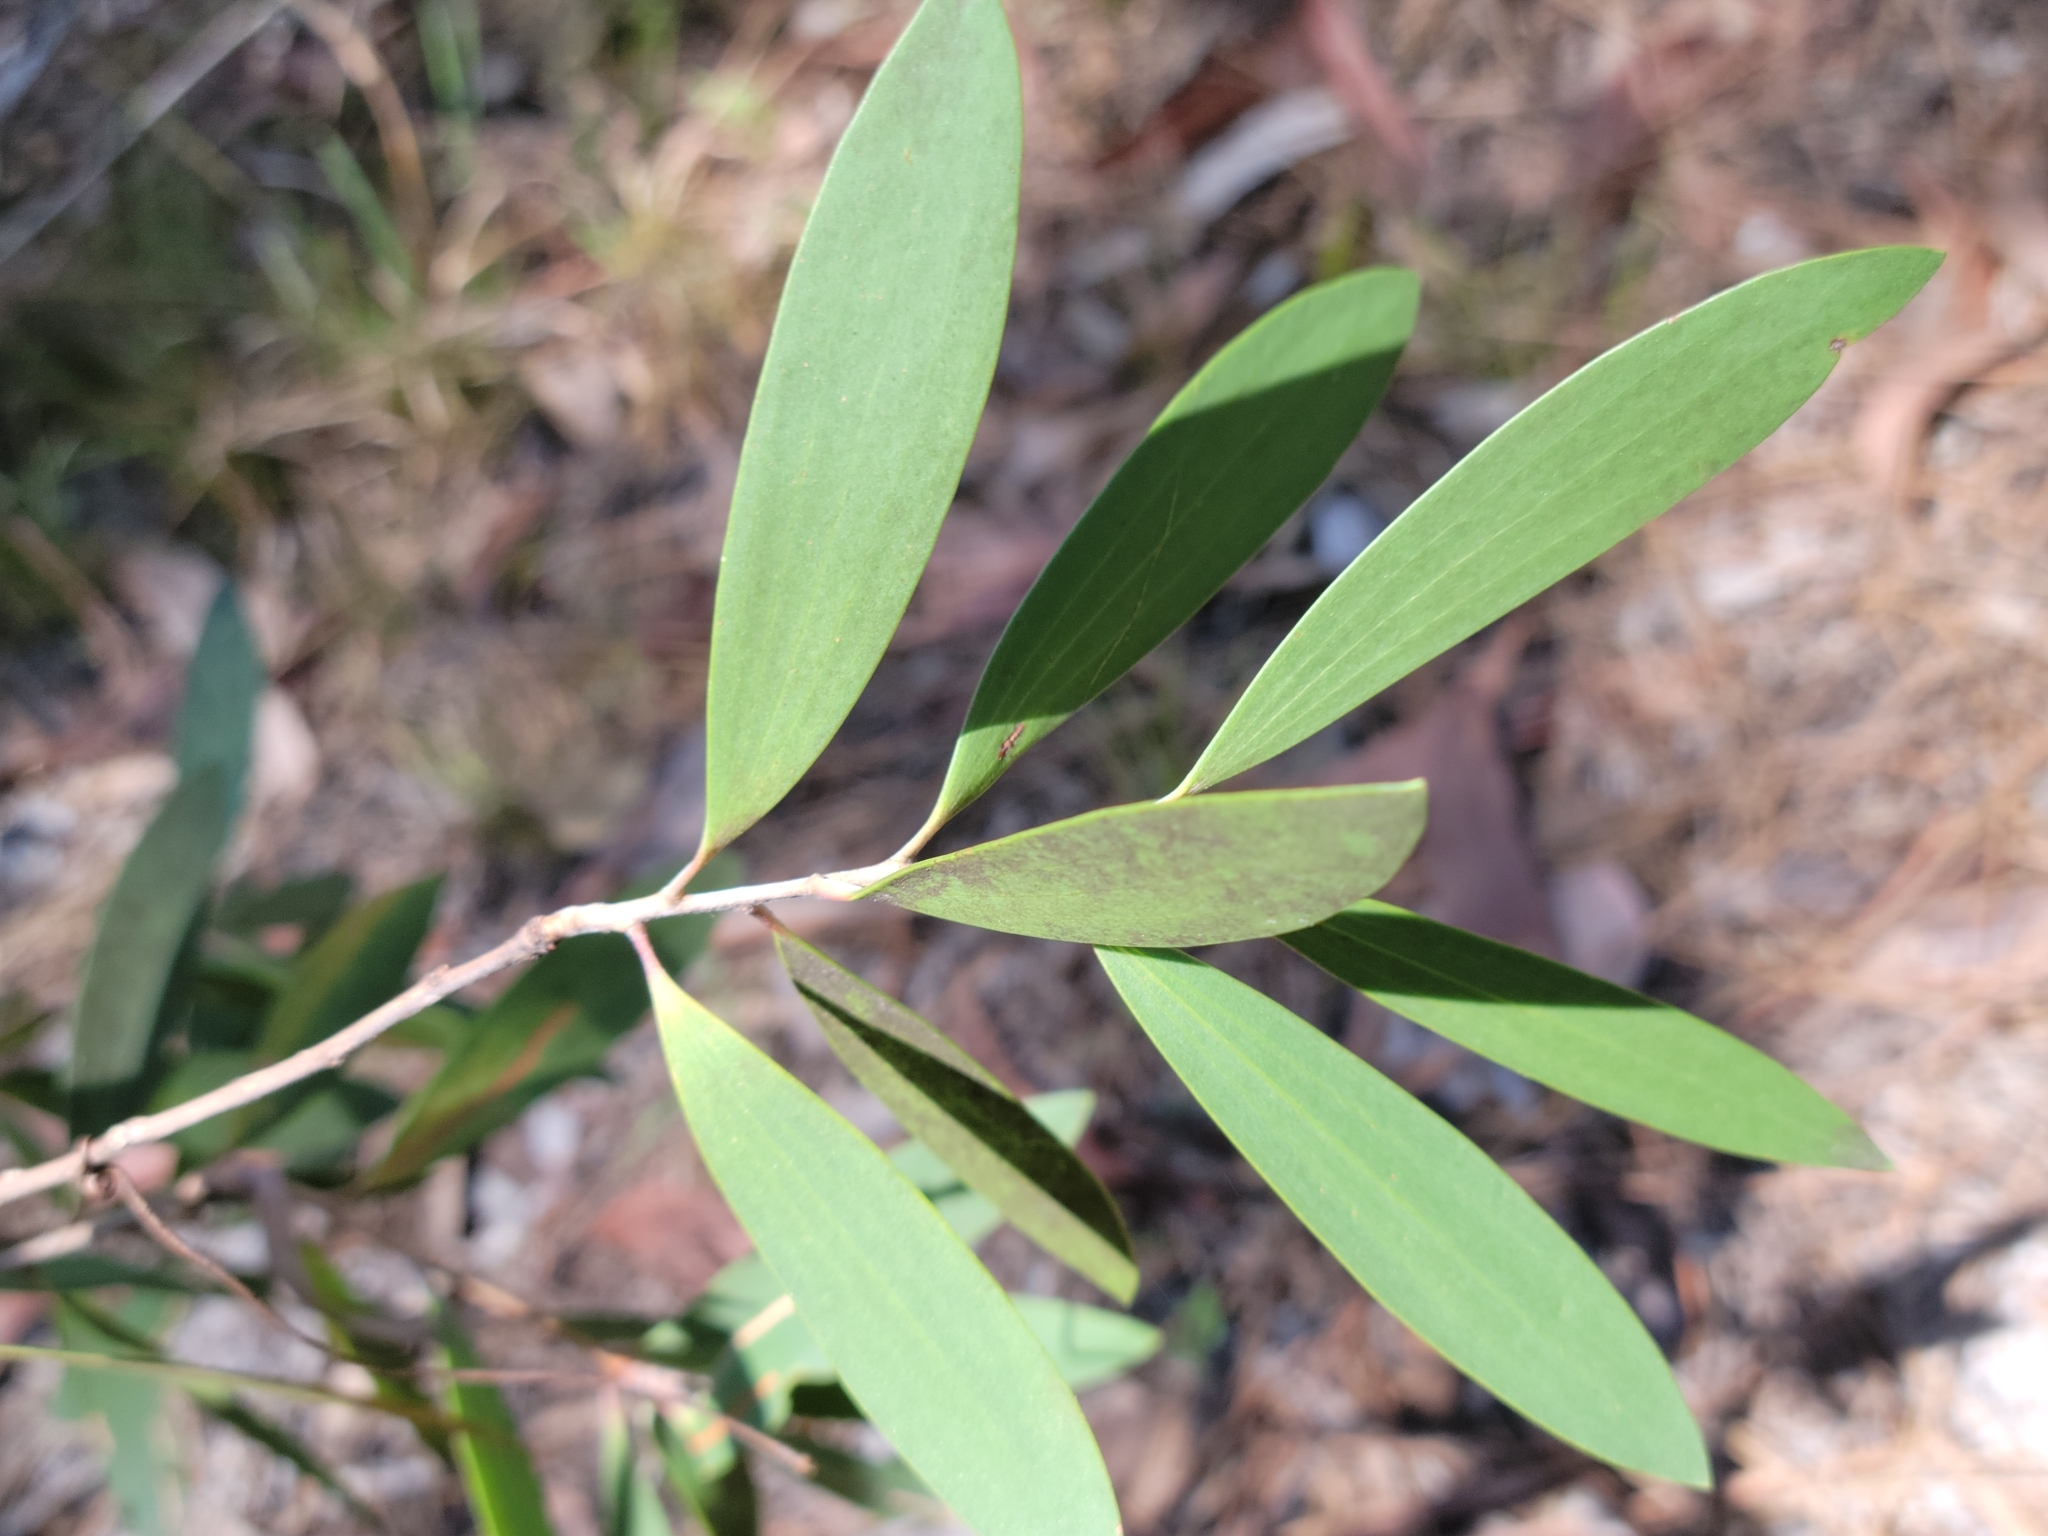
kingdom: Plantae
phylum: Tracheophyta
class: Magnoliopsida
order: Myrtales
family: Myrtaceae
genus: Melaleuca
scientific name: Melaleuca quinquenervia
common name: Punktree
